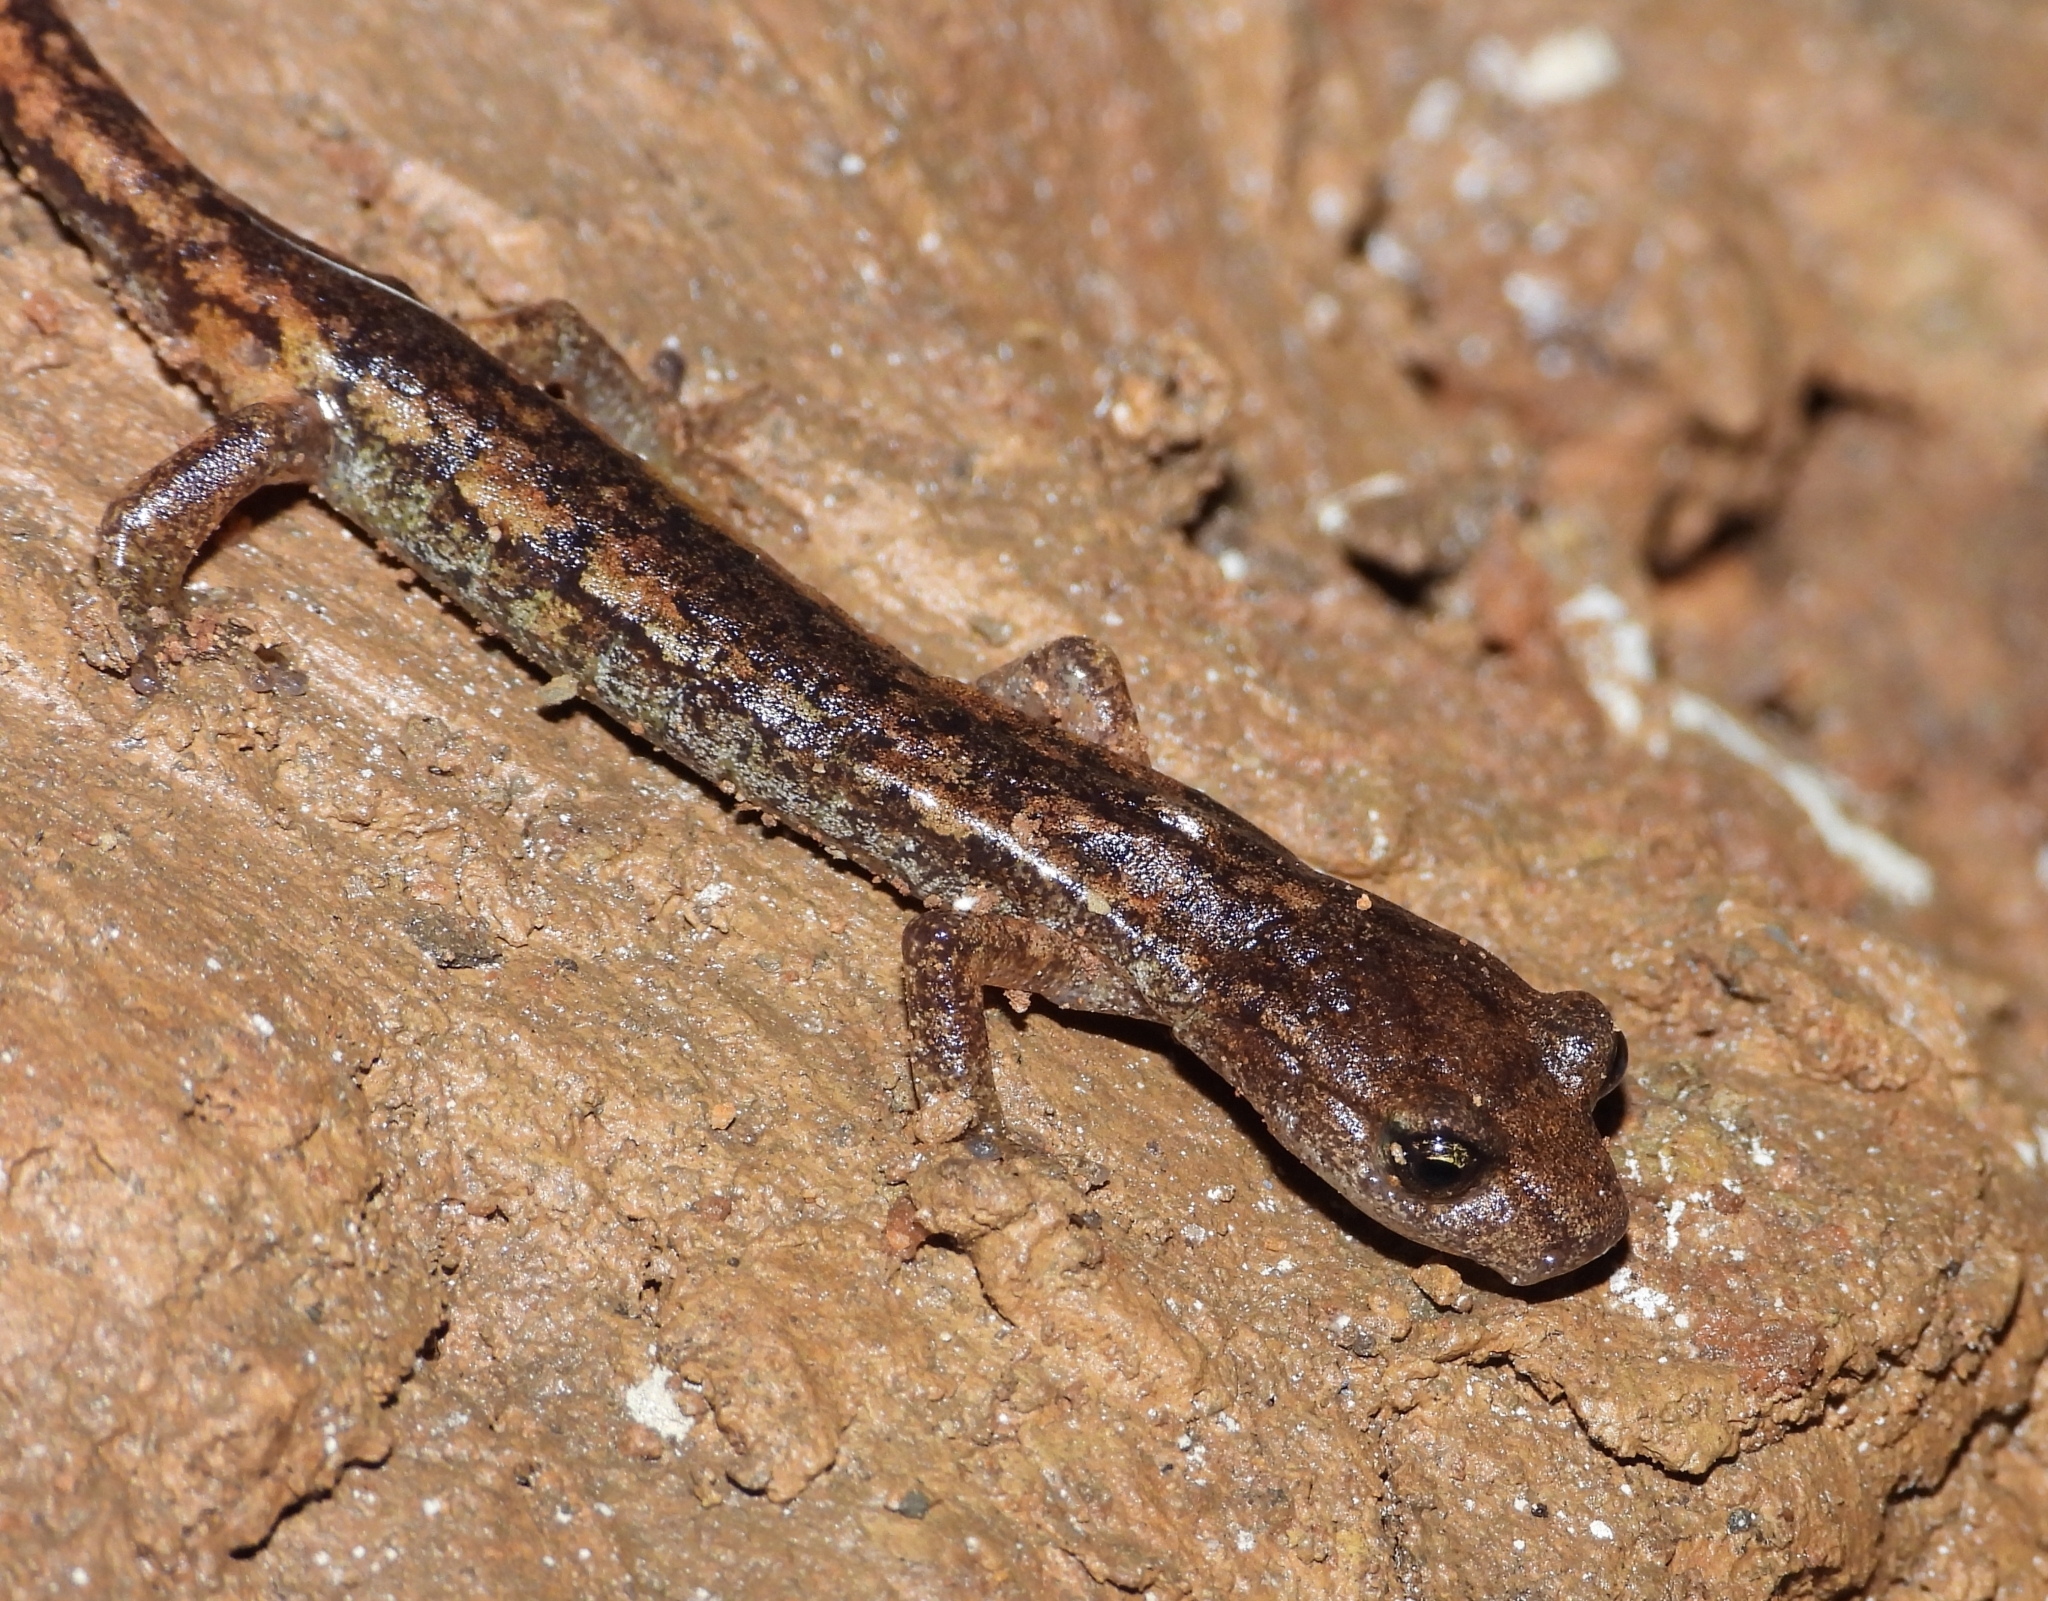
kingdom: Animalia
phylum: Chordata
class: Amphibia
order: Caudata
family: Plethodontidae
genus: Speleomantes
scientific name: Speleomantes ambrosii
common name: Ambrosi's cave salamander
